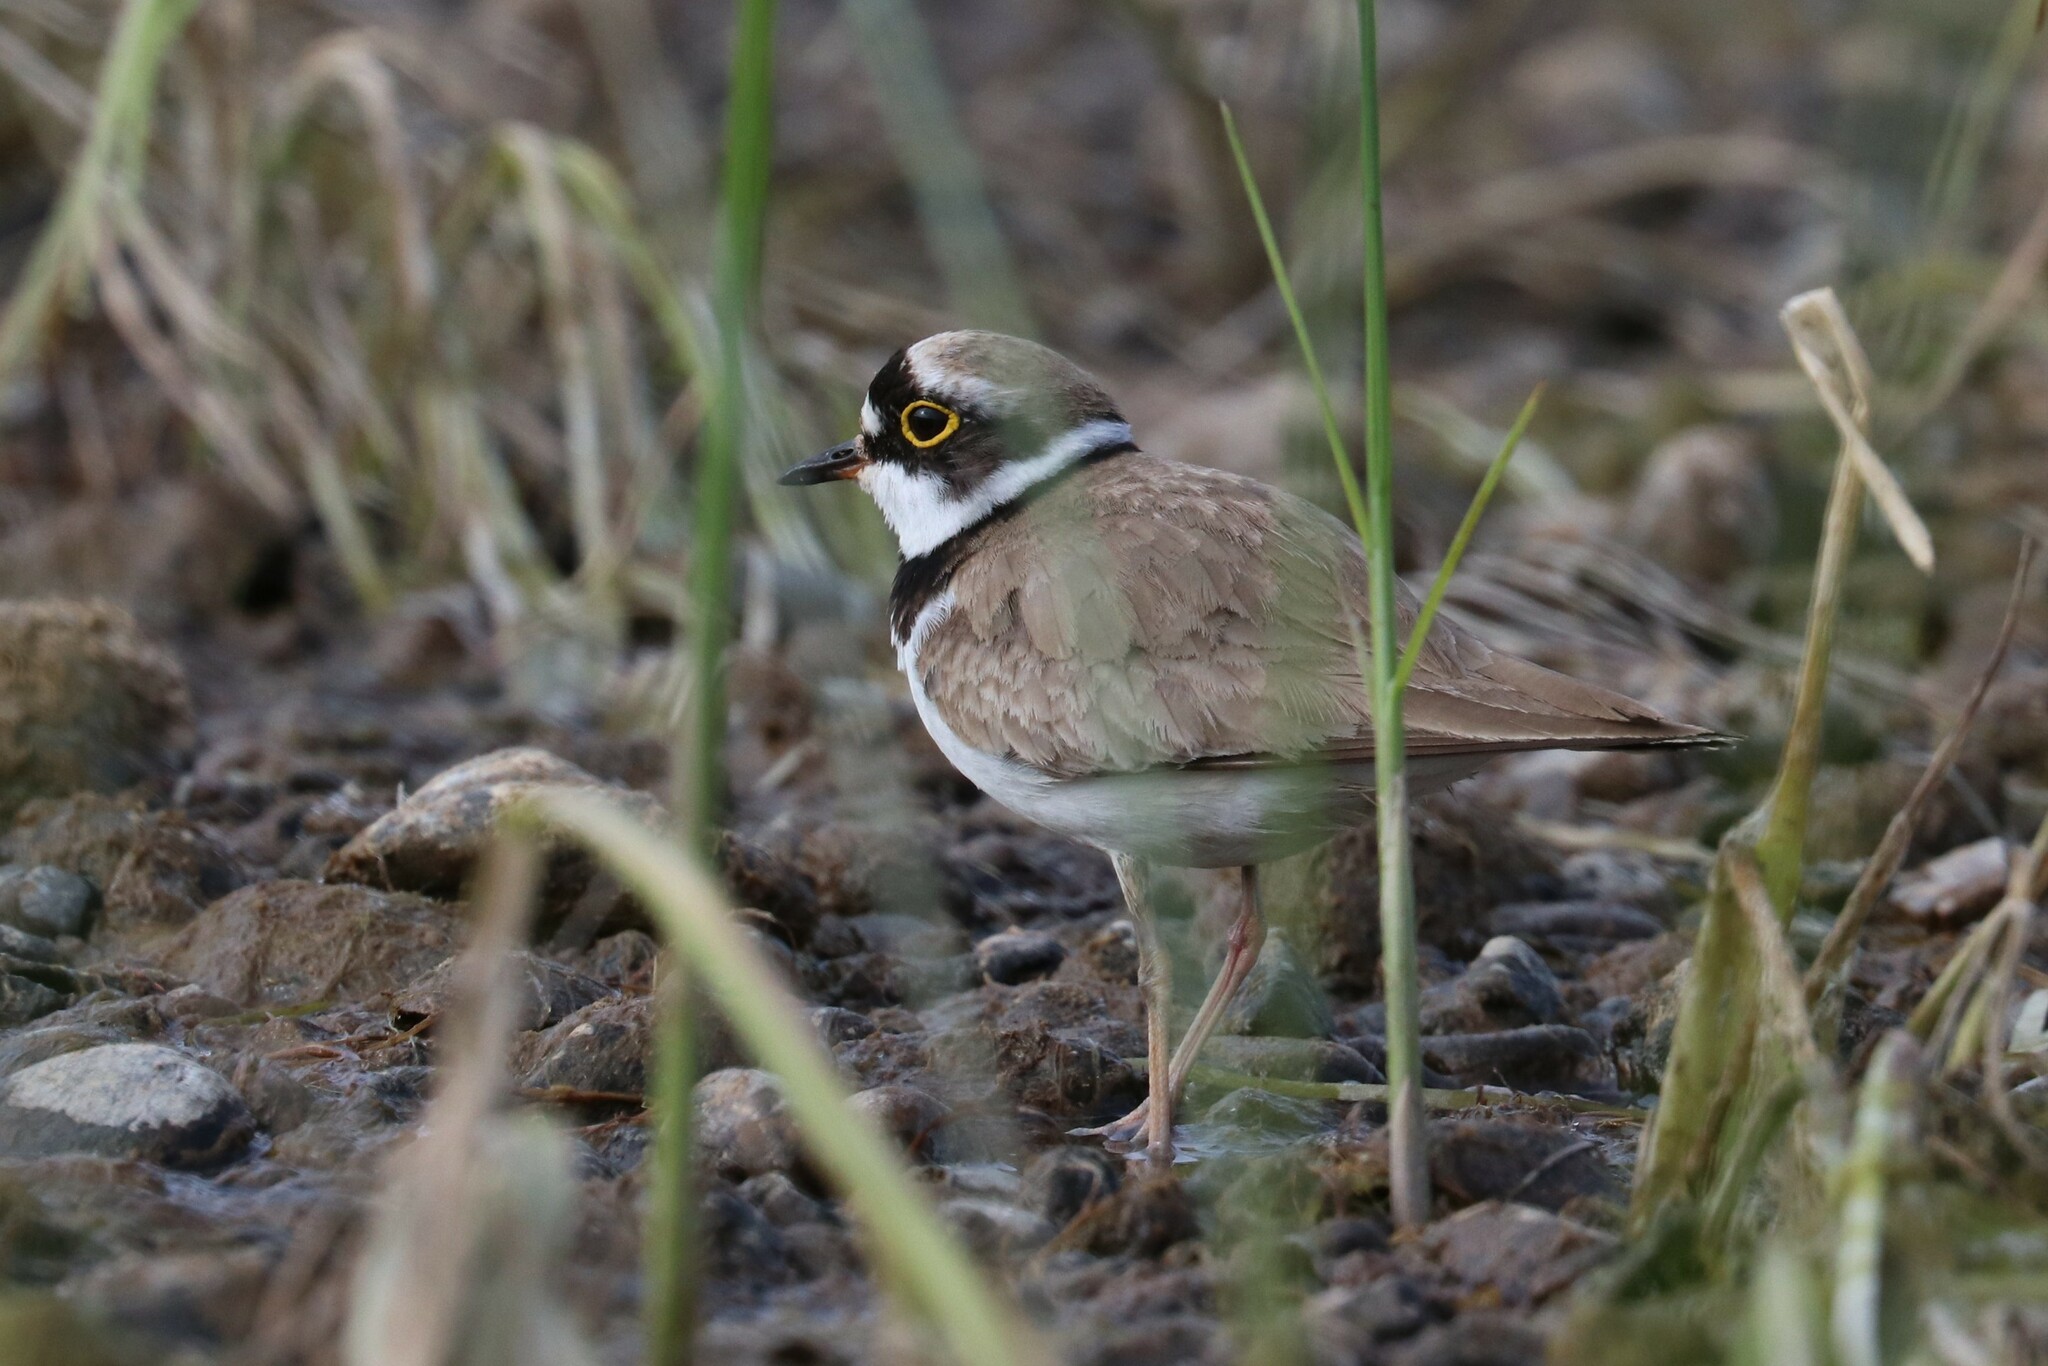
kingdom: Animalia
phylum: Chordata
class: Aves
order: Charadriiformes
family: Charadriidae
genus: Charadrius
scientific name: Charadrius dubius
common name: Little ringed plover
